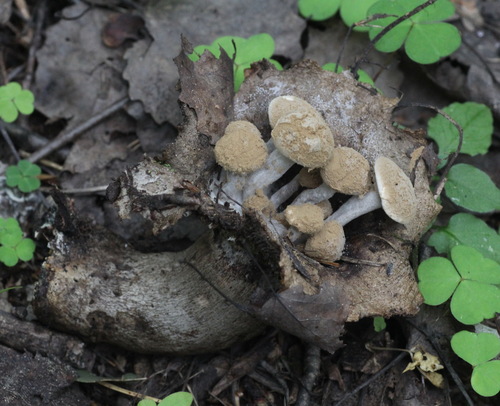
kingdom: Fungi
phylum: Basidiomycota
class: Agaricomycetes
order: Agaricales
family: Lyophyllaceae
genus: Asterophora
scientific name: Asterophora lycoperdoides
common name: Pick-a-back toadstool
